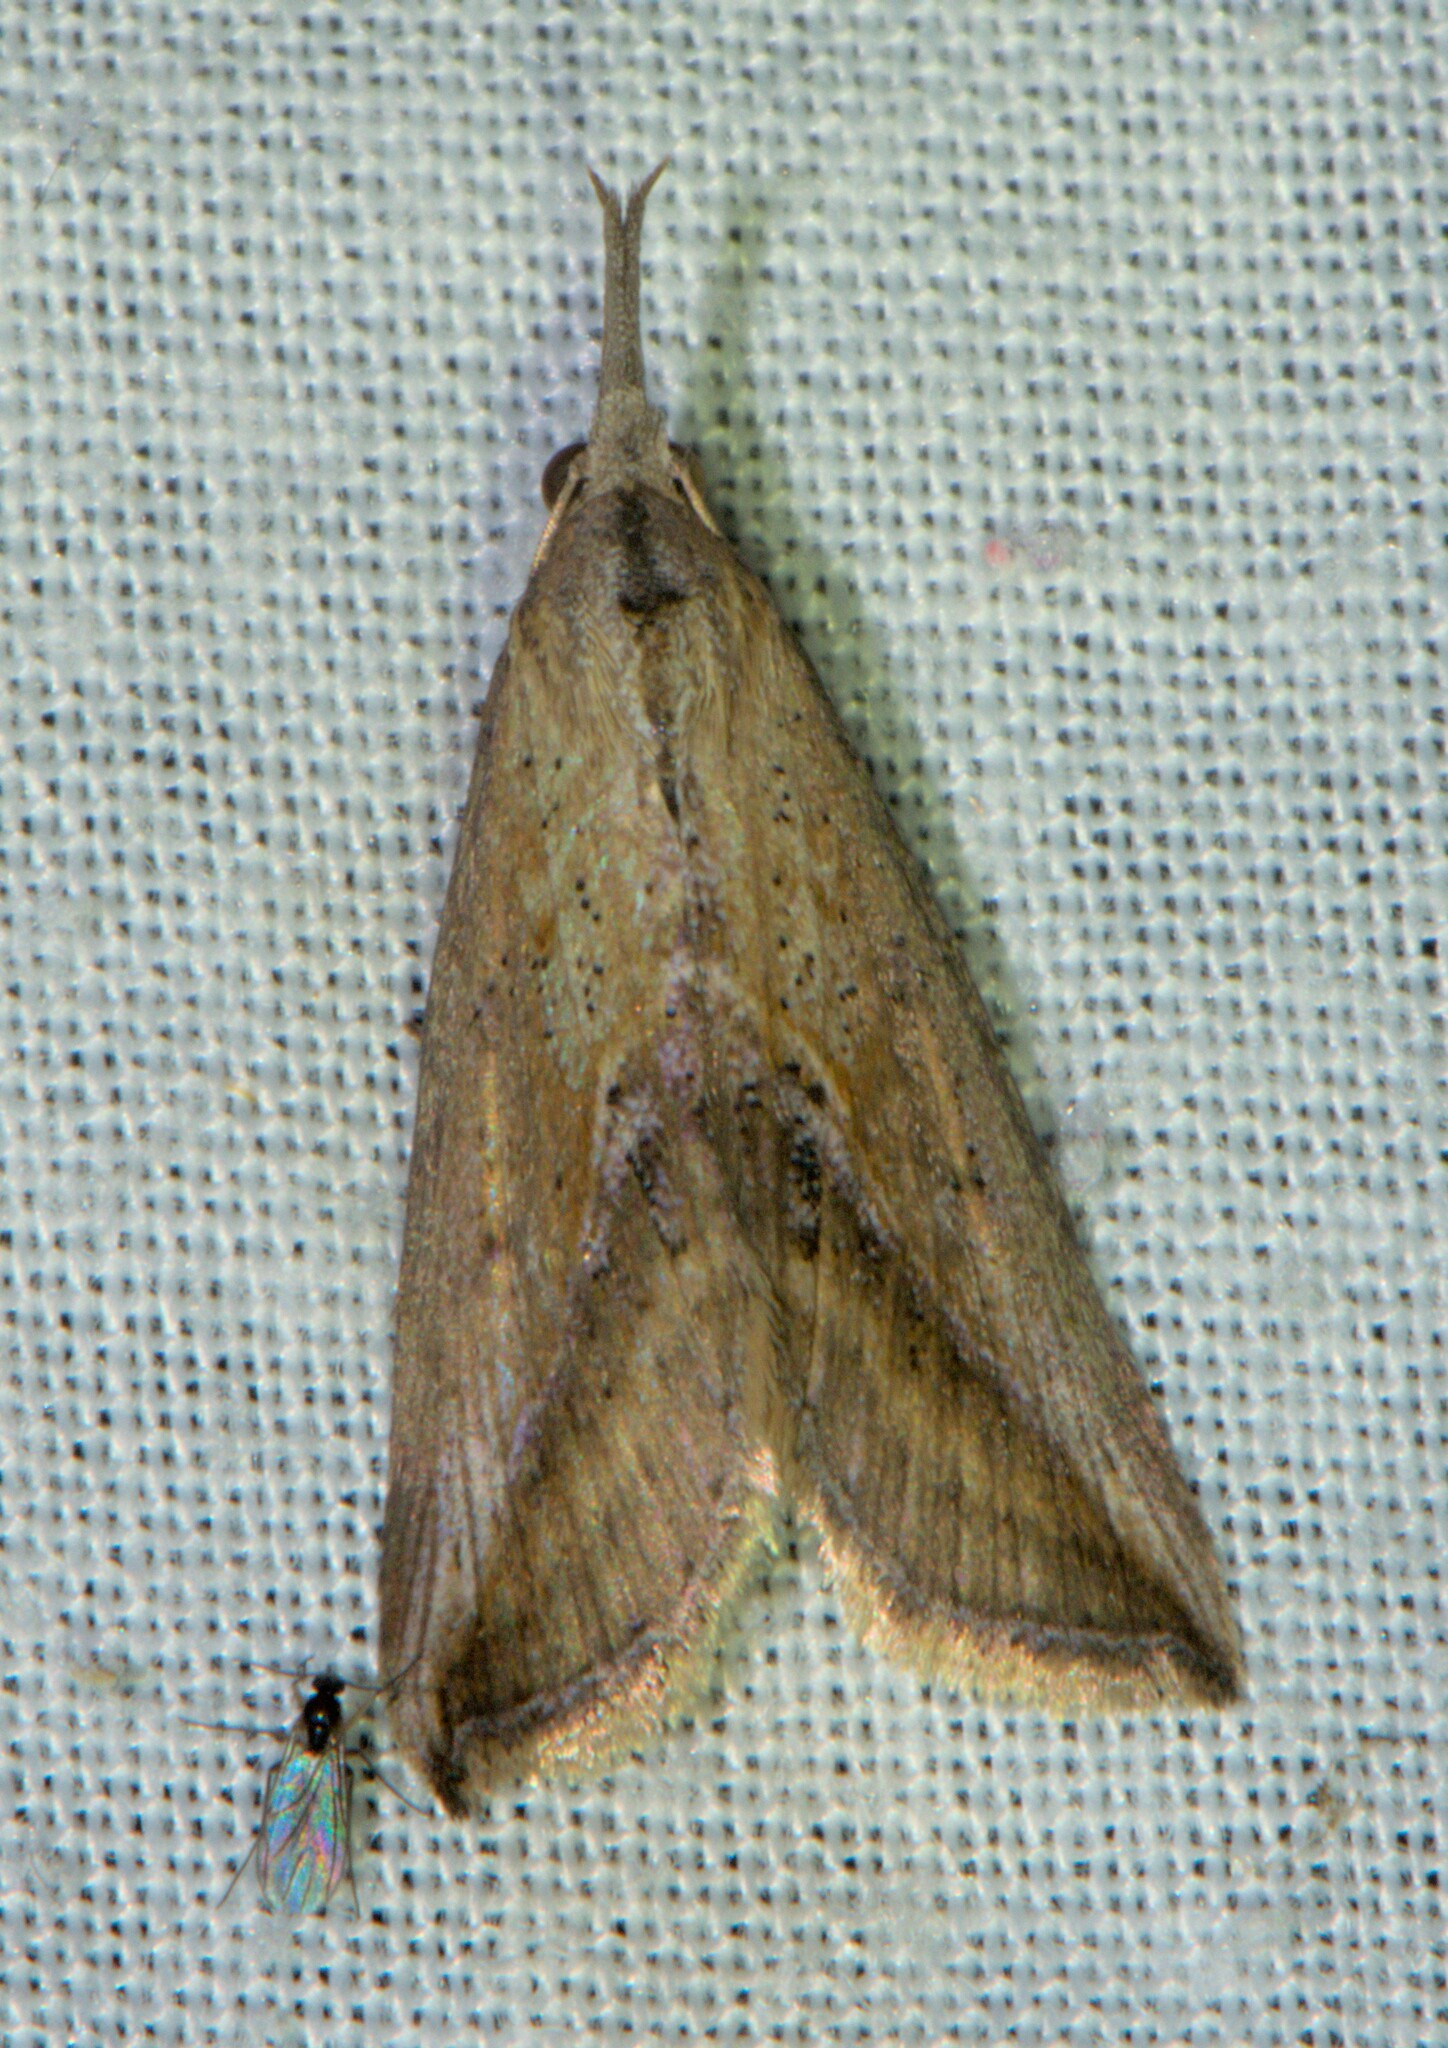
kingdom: Animalia
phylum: Arthropoda
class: Insecta
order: Lepidoptera
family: Erebidae
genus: Rhynchina
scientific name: Rhynchina pionealis
